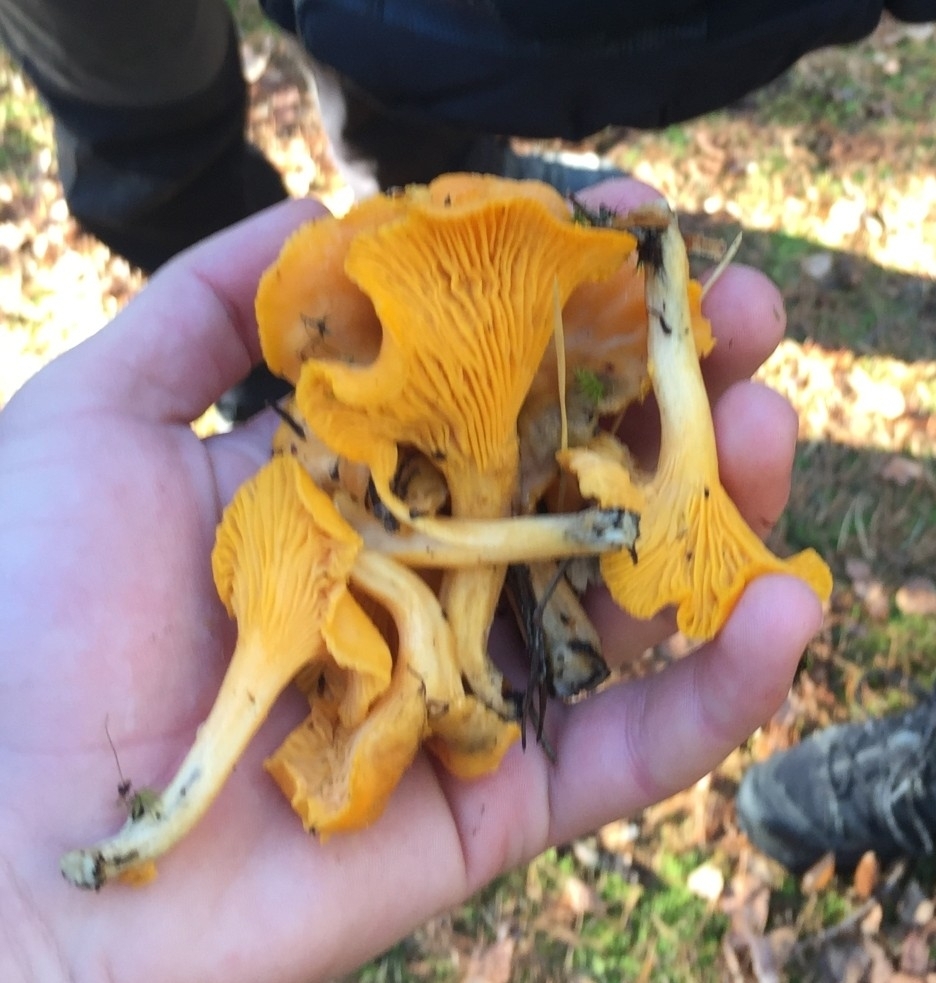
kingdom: Fungi
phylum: Basidiomycota
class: Agaricomycetes
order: Cantharellales
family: Hydnaceae
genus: Cantharellus
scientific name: Cantharellus cibarius
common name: Chanterelle
